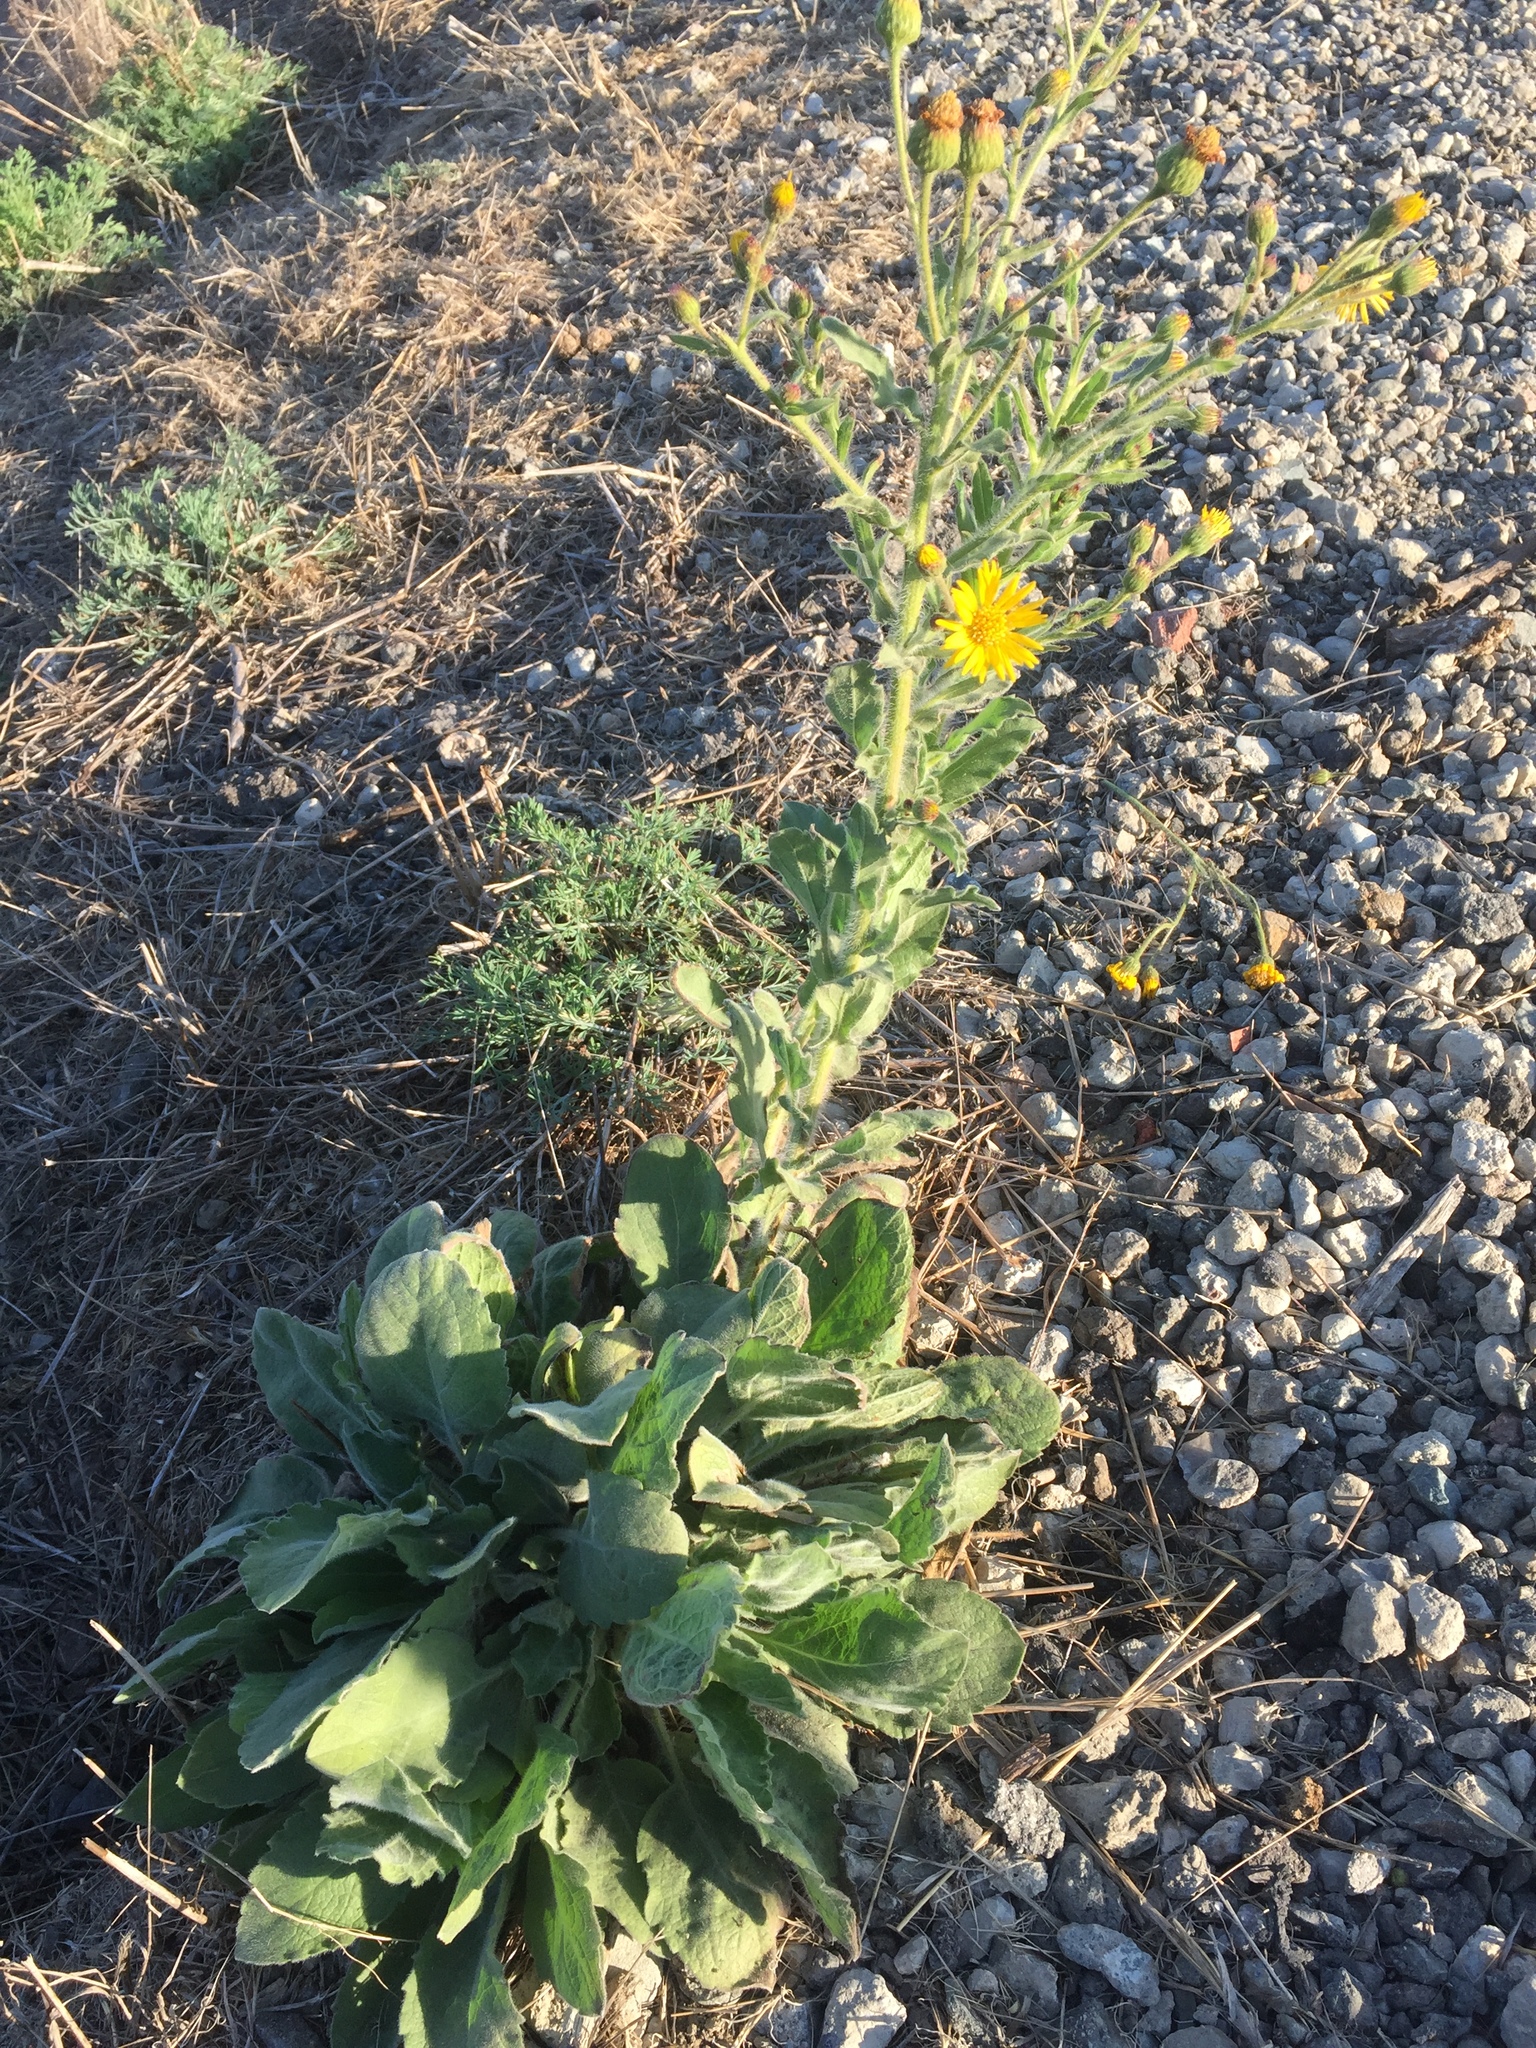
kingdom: Plantae
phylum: Tracheophyta
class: Magnoliopsida
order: Asterales
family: Asteraceae
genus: Heterotheca
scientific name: Heterotheca grandiflora
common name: Telegraphweed
